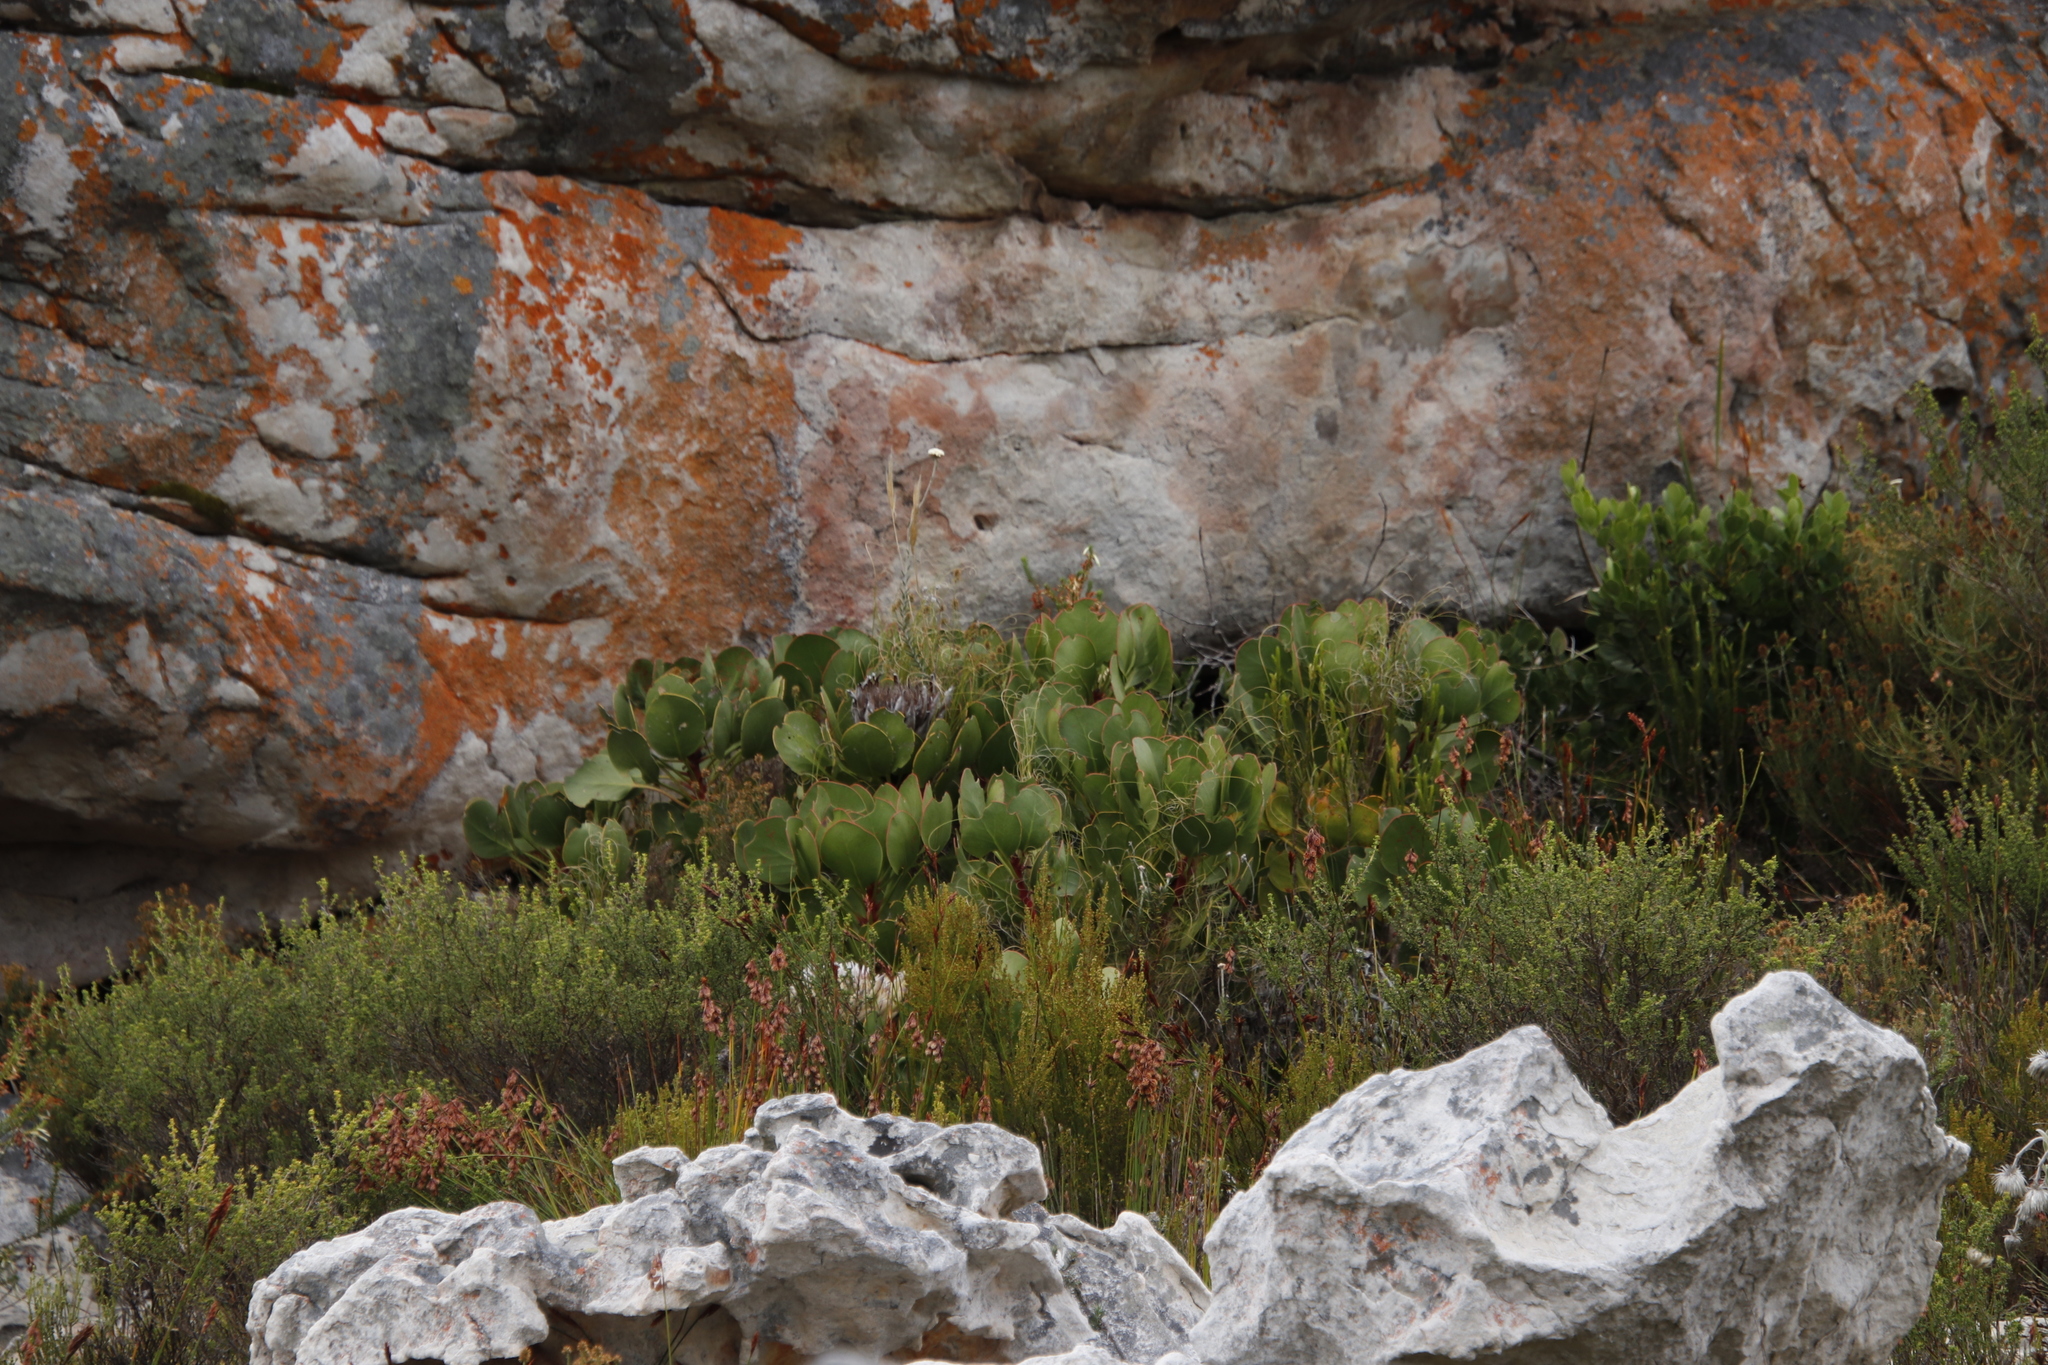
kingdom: Plantae
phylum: Tracheophyta
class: Magnoliopsida
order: Proteales
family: Proteaceae
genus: Protea
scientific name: Protea cynaroides
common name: King protea
